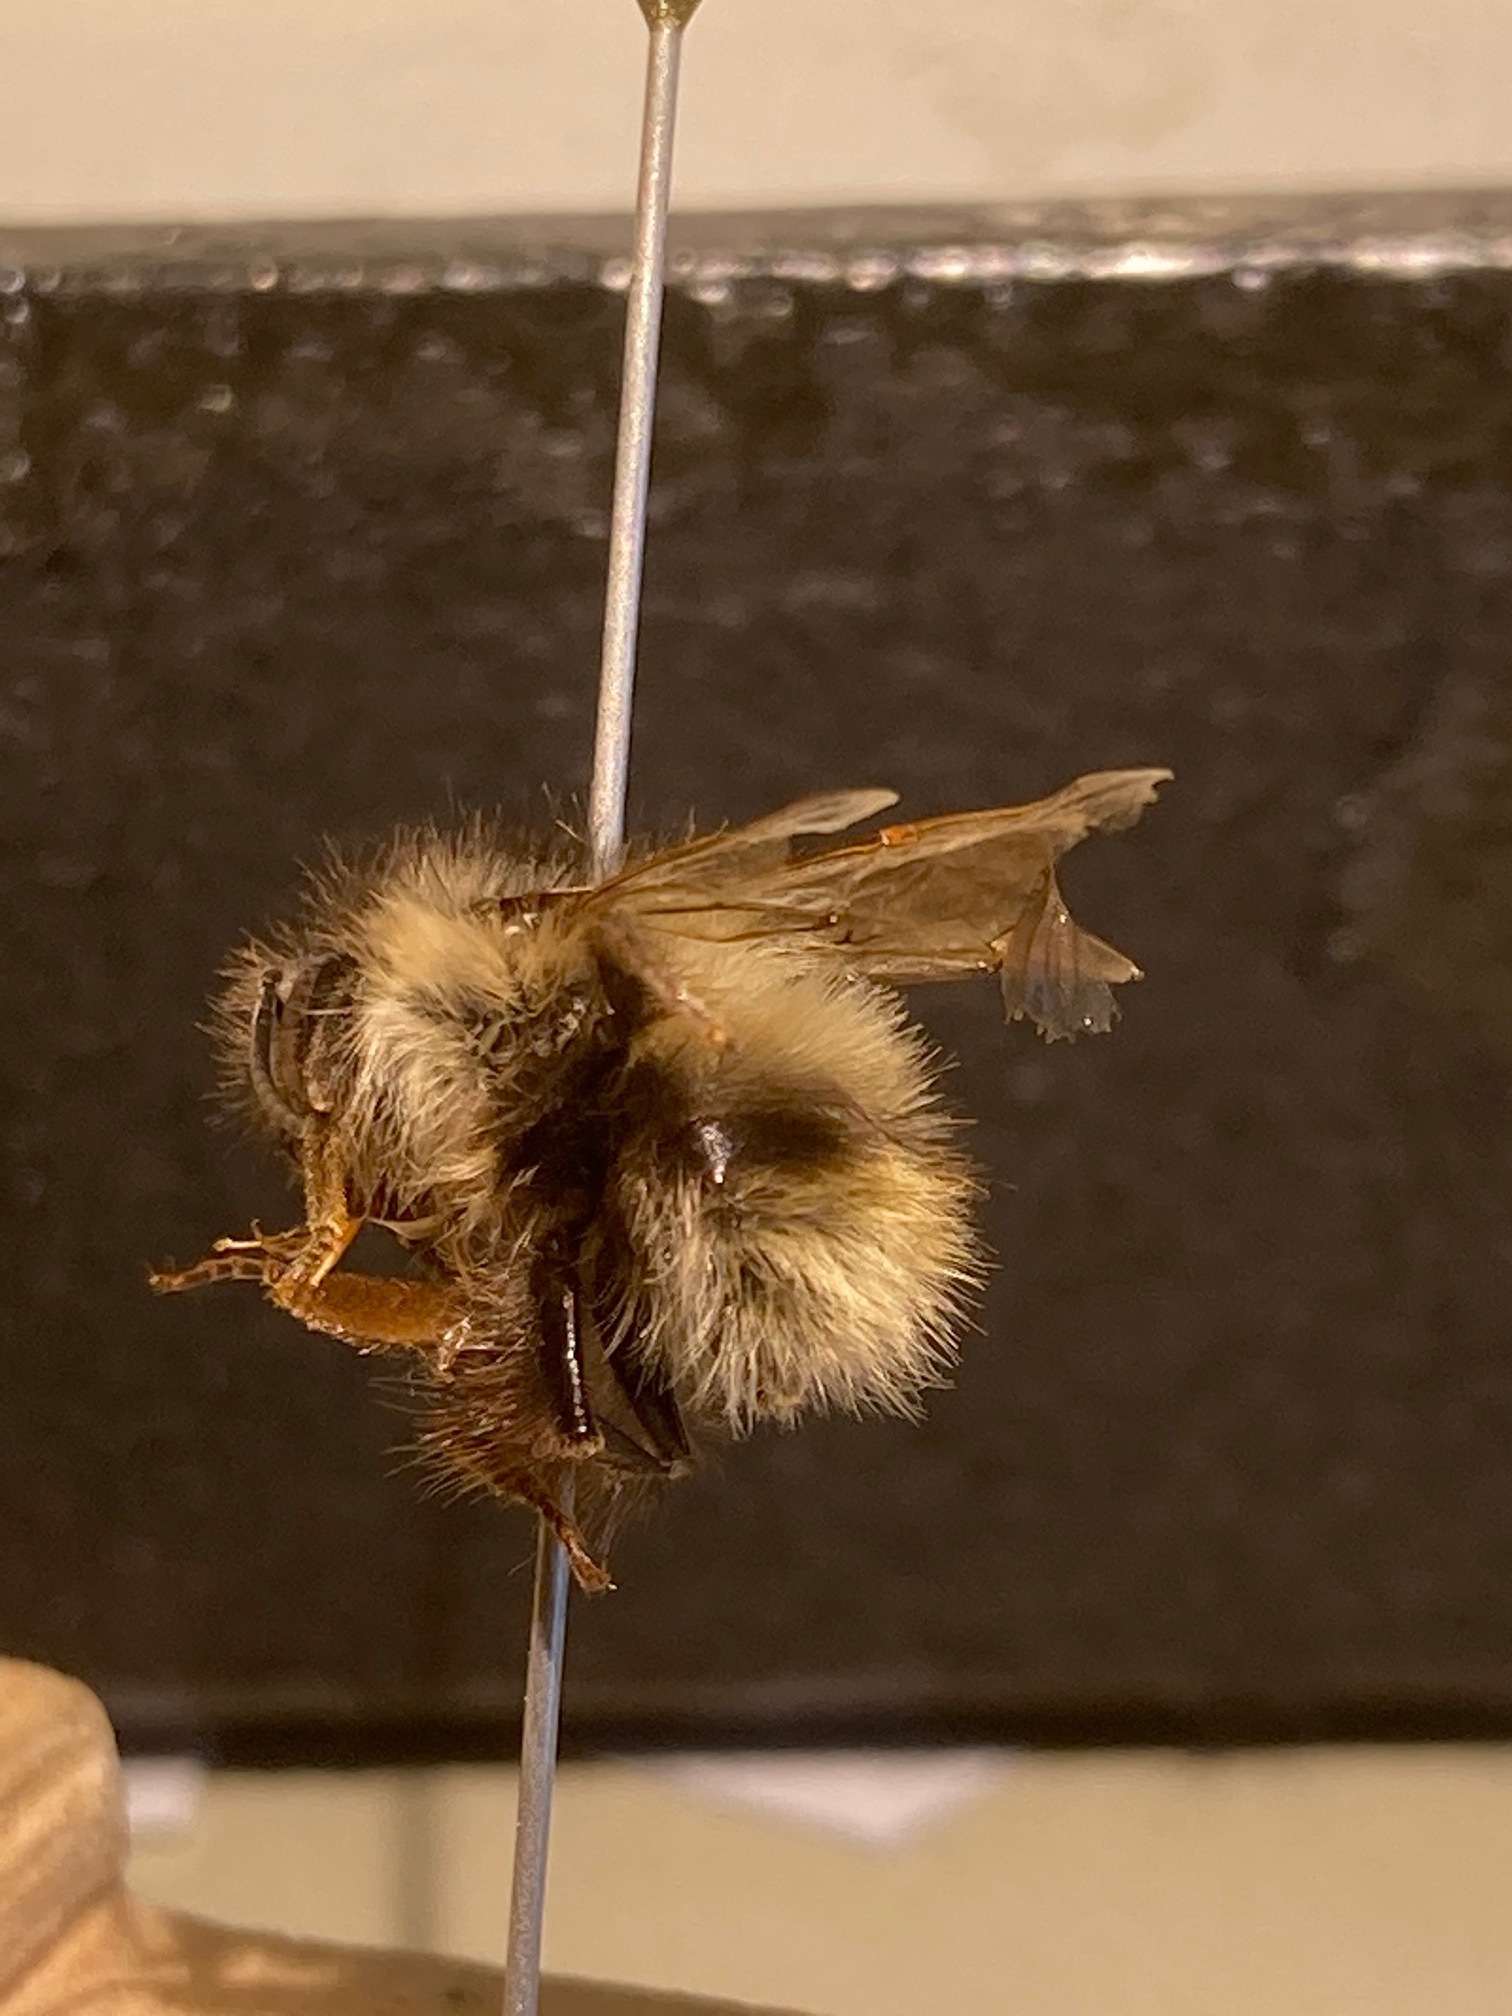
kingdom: Animalia
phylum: Arthropoda
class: Insecta
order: Hymenoptera
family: Apidae
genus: Bombus
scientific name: Bombus mixtus
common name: Fuzzy-horned bumble bee
